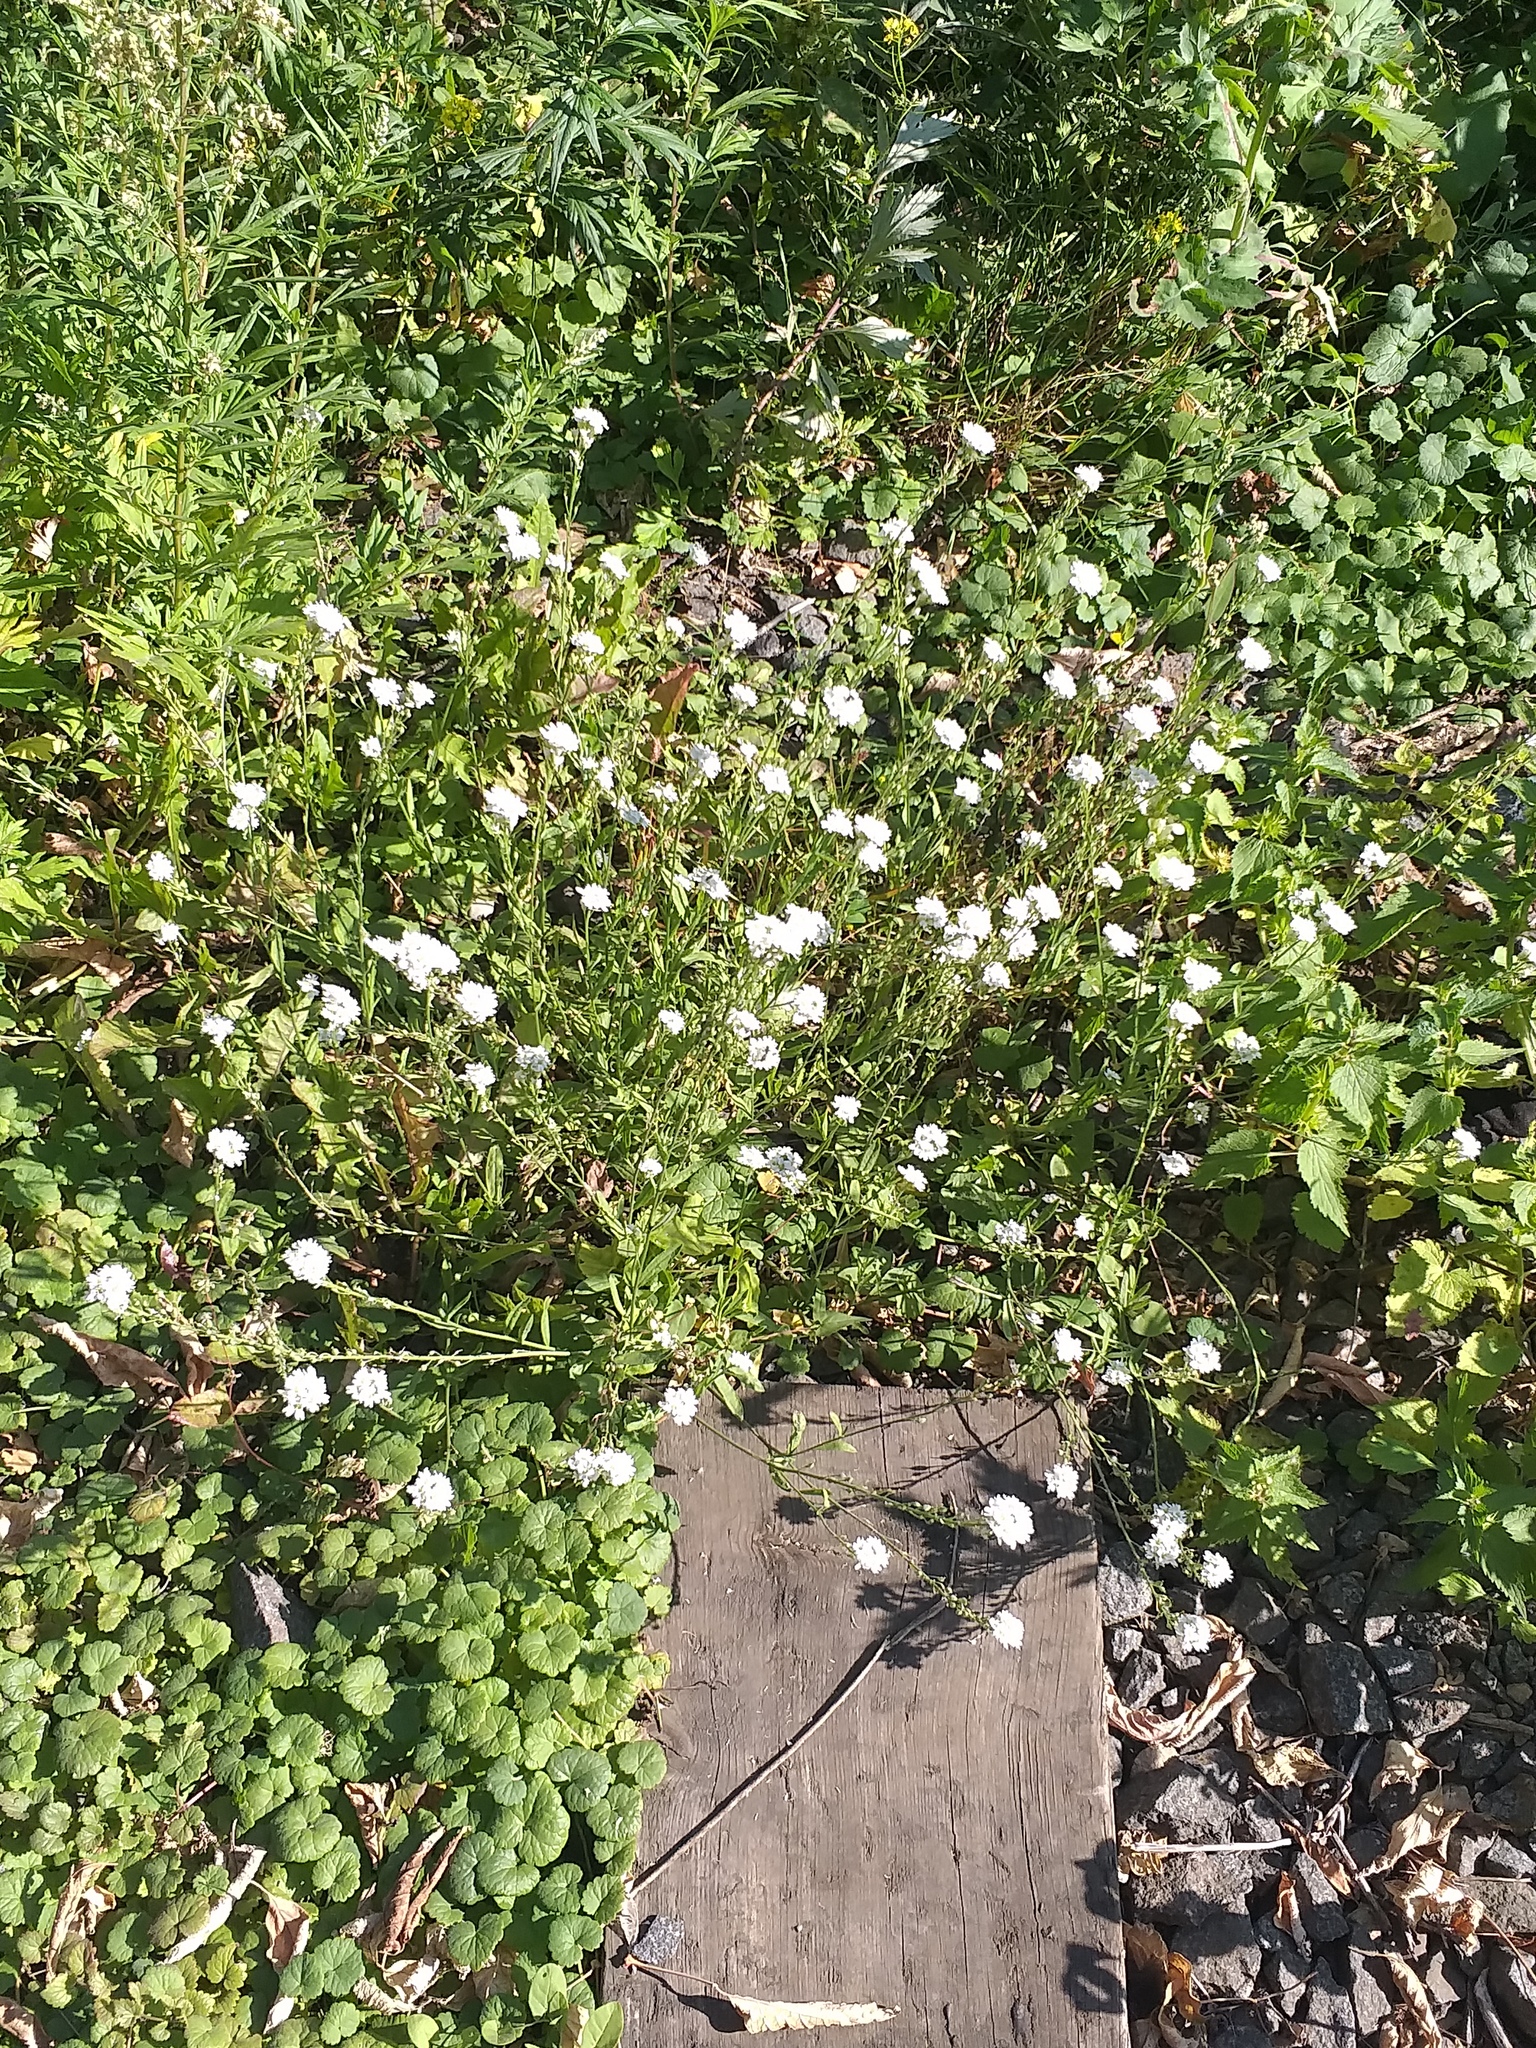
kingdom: Plantae
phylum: Tracheophyta
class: Magnoliopsida
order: Brassicales
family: Brassicaceae
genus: Berteroa
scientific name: Berteroa incana
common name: Hoary alison
